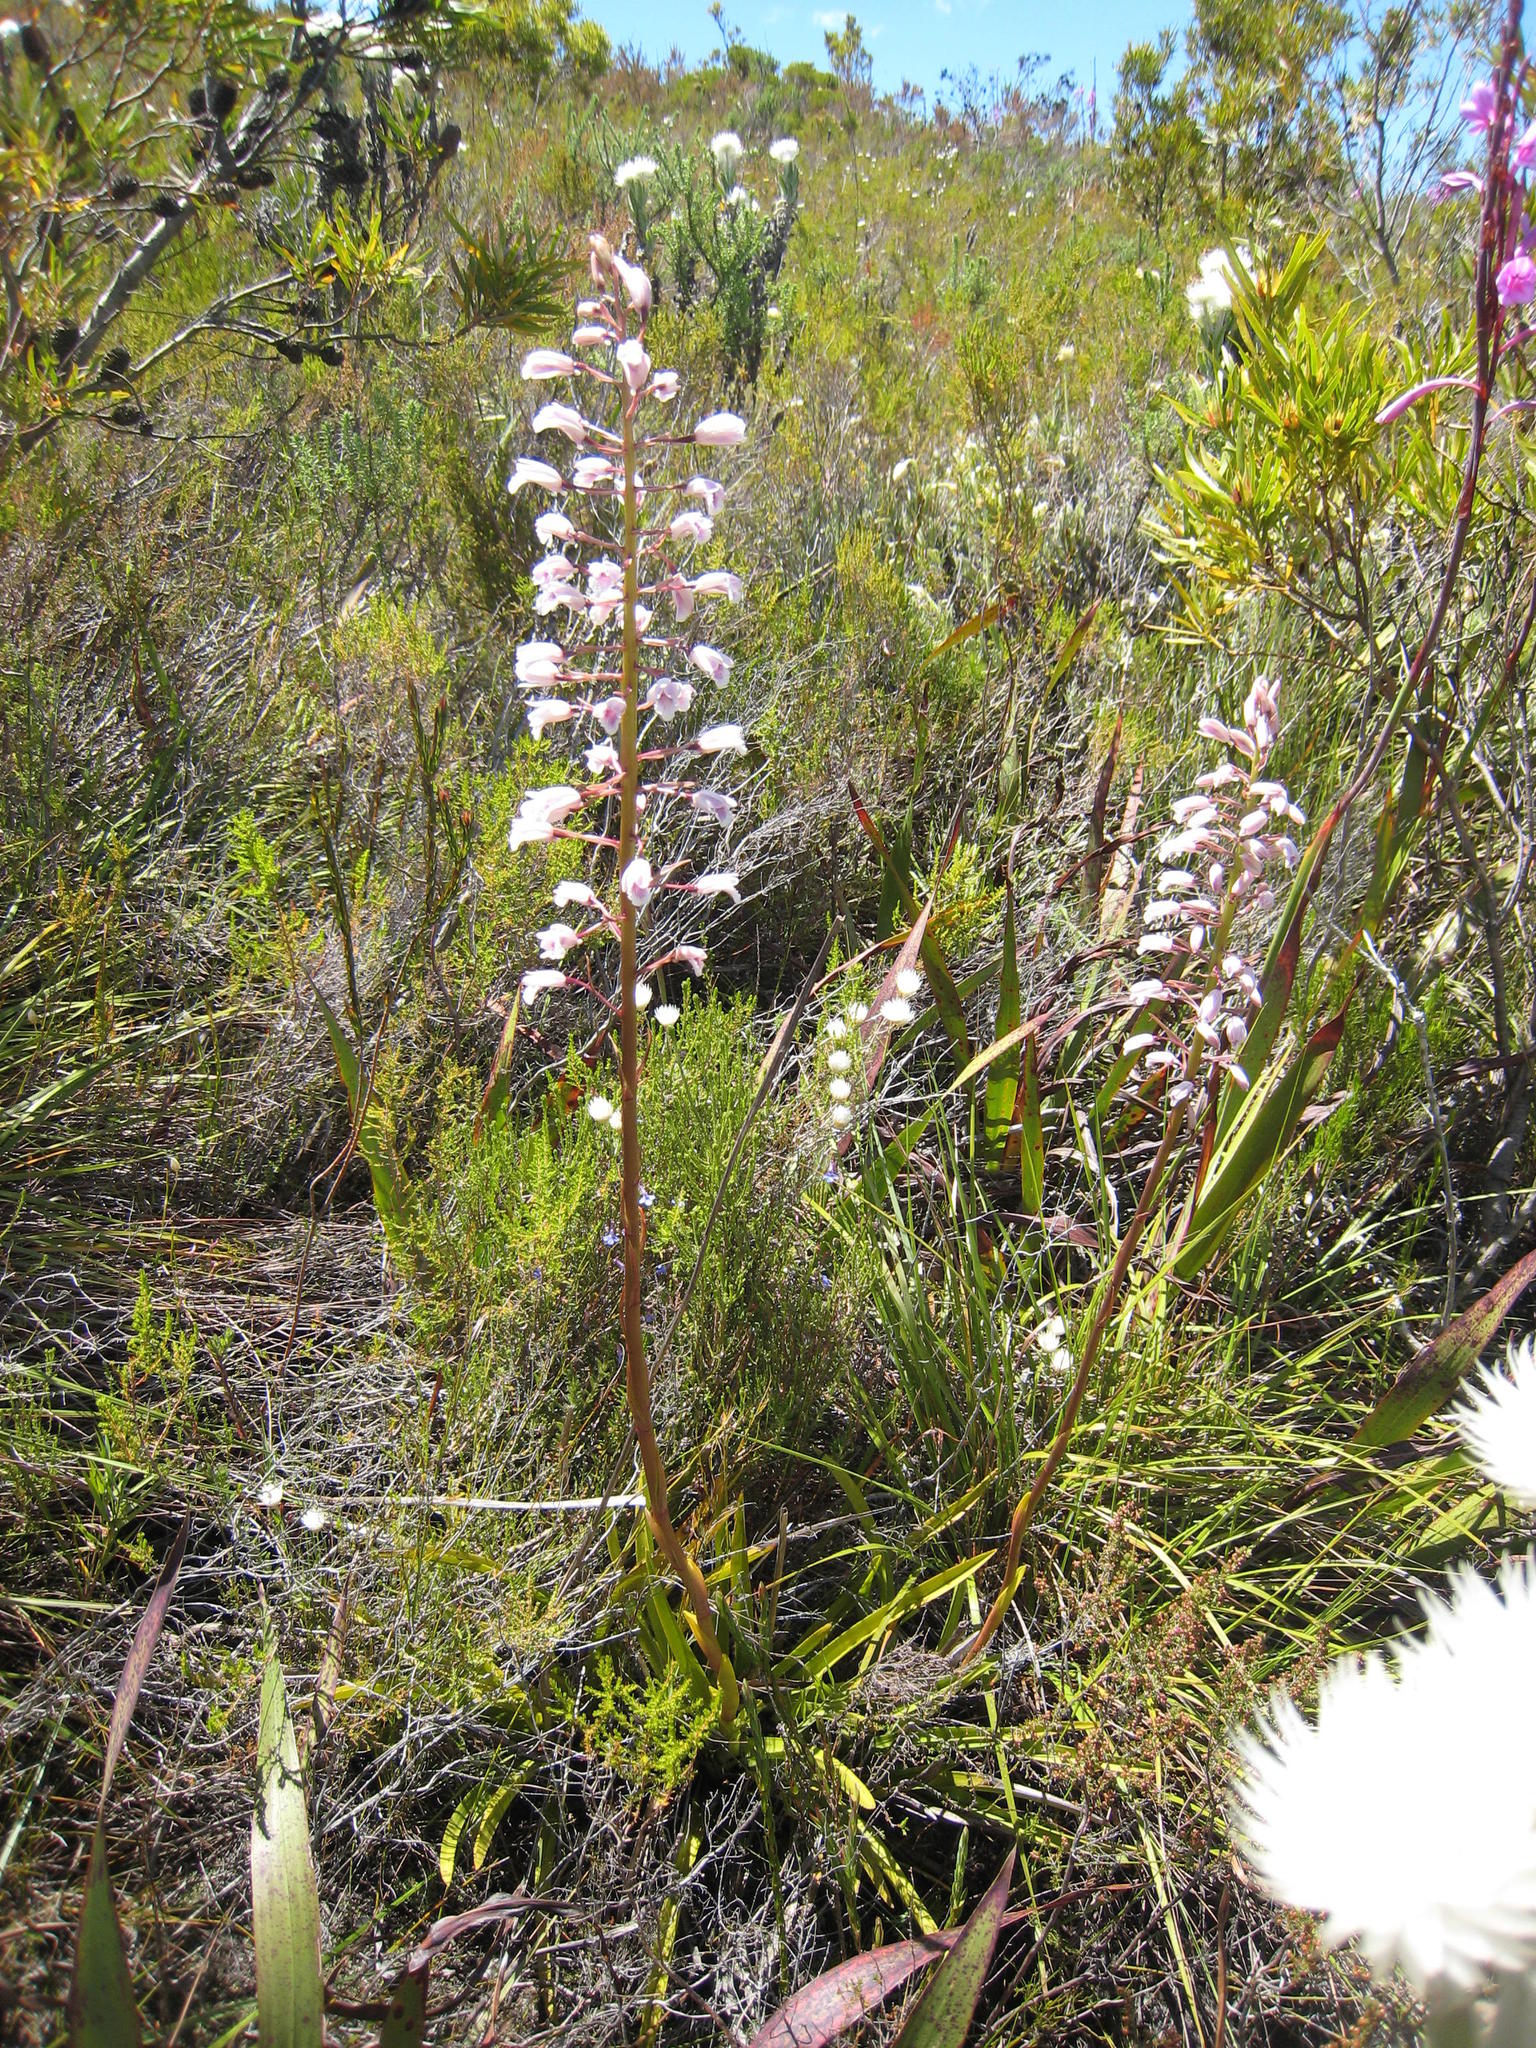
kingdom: Plantae
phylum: Tracheophyta
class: Liliopsida
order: Asparagales
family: Orchidaceae
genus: Eulophia
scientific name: Eulophia barbata
